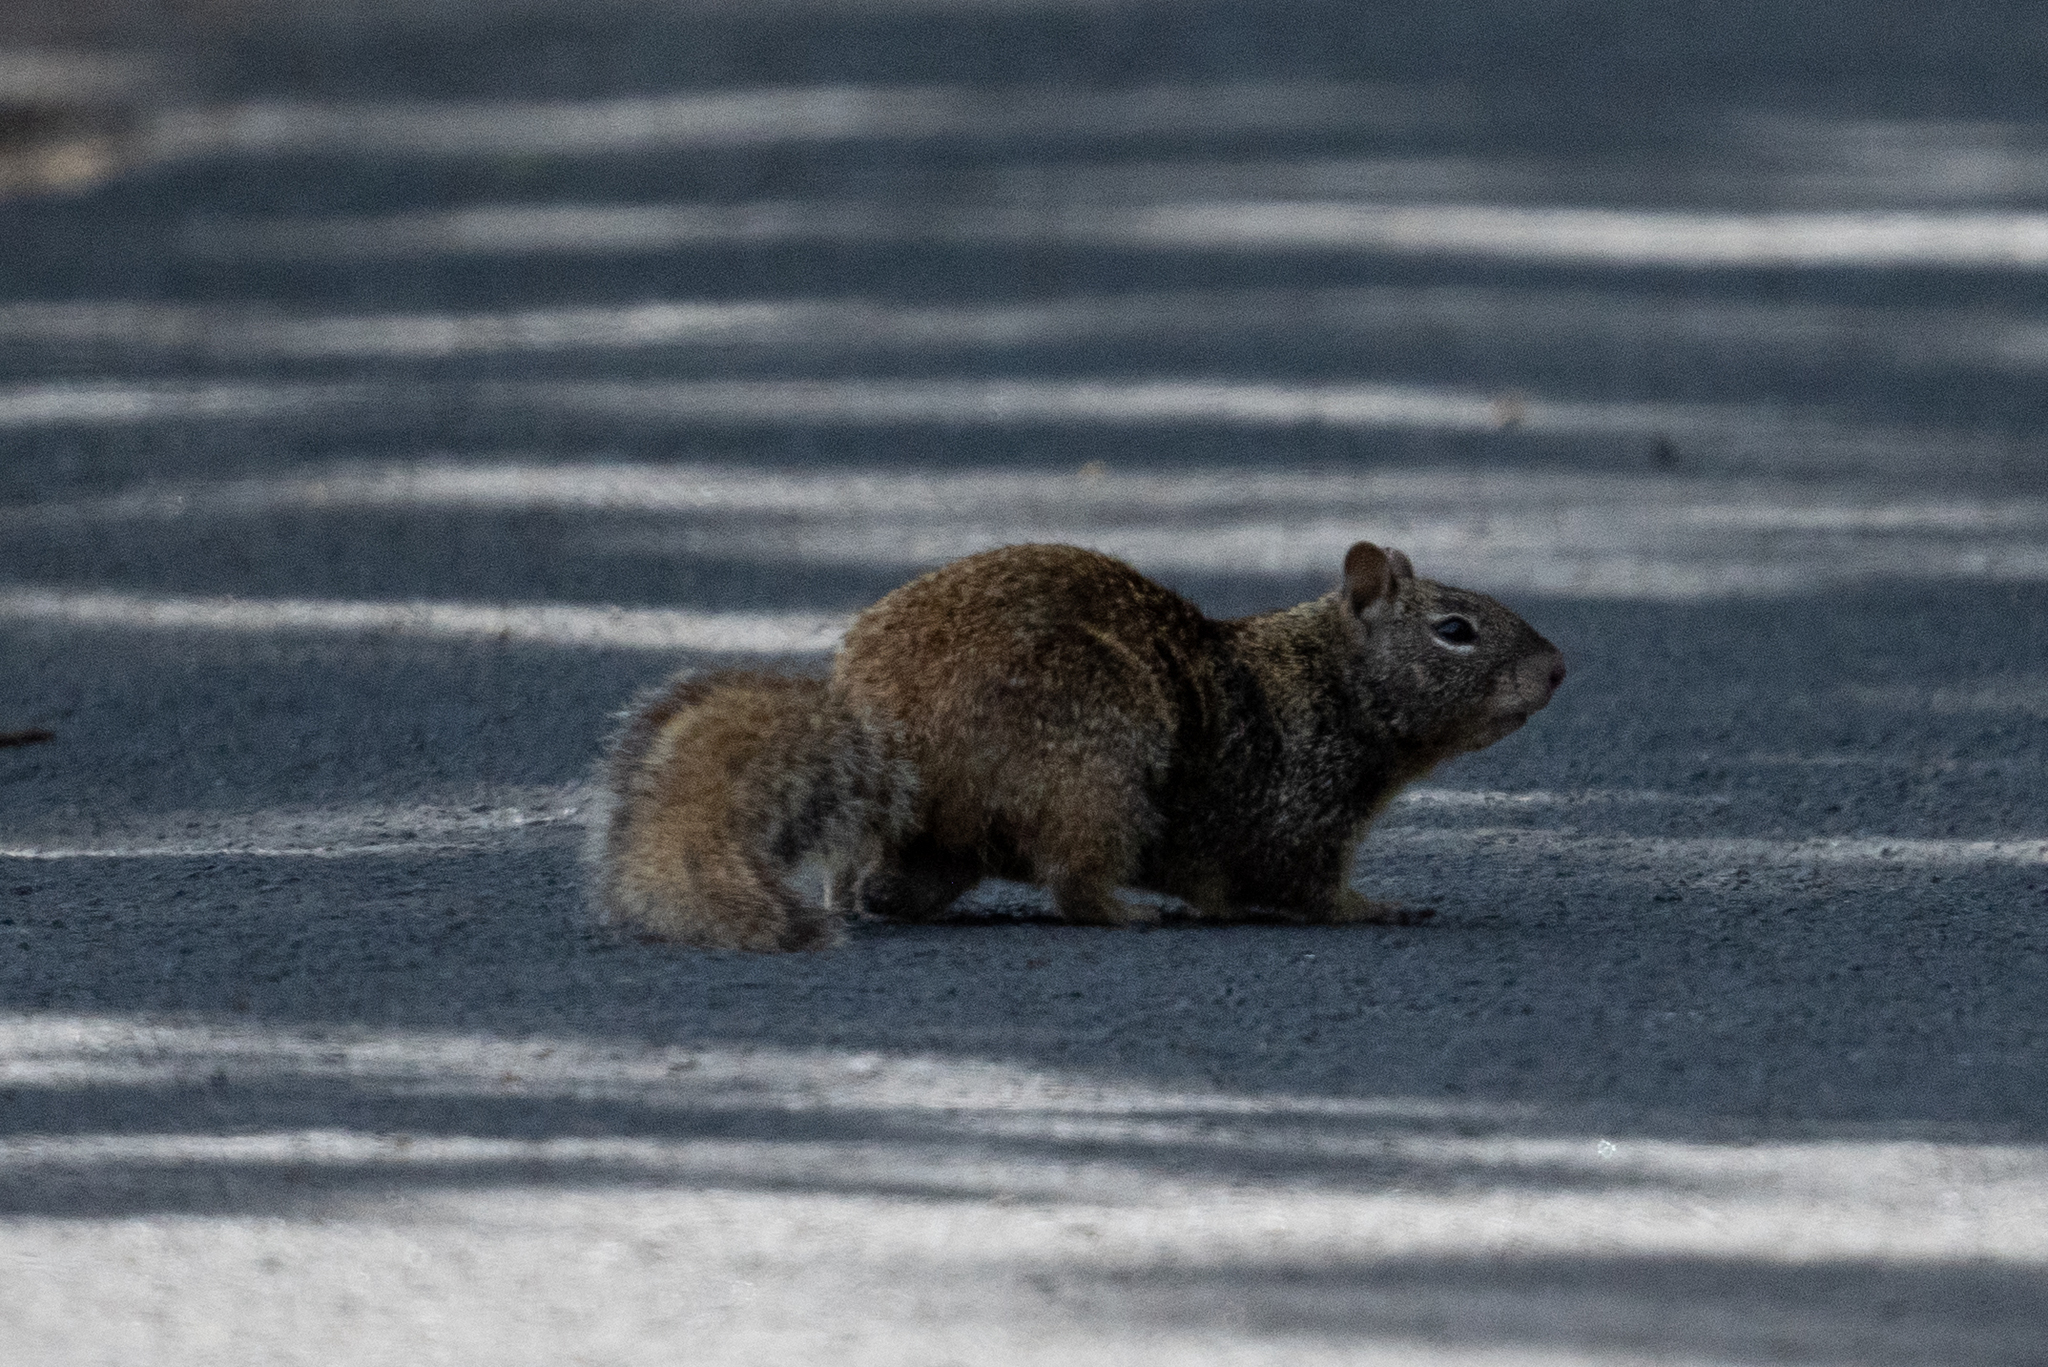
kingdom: Animalia
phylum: Chordata
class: Mammalia
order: Rodentia
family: Sciuridae
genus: Otospermophilus
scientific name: Otospermophilus beecheyi
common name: California ground squirrel
